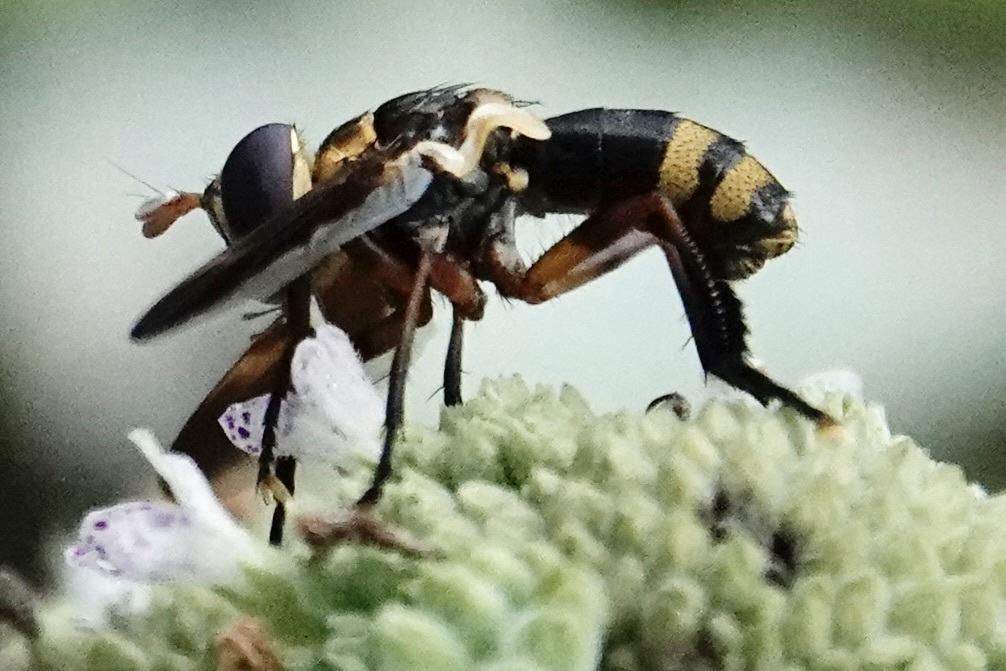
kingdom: Animalia
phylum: Arthropoda
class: Insecta
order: Diptera
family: Tachinidae
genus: Trichopoda
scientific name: Trichopoda plumipes
